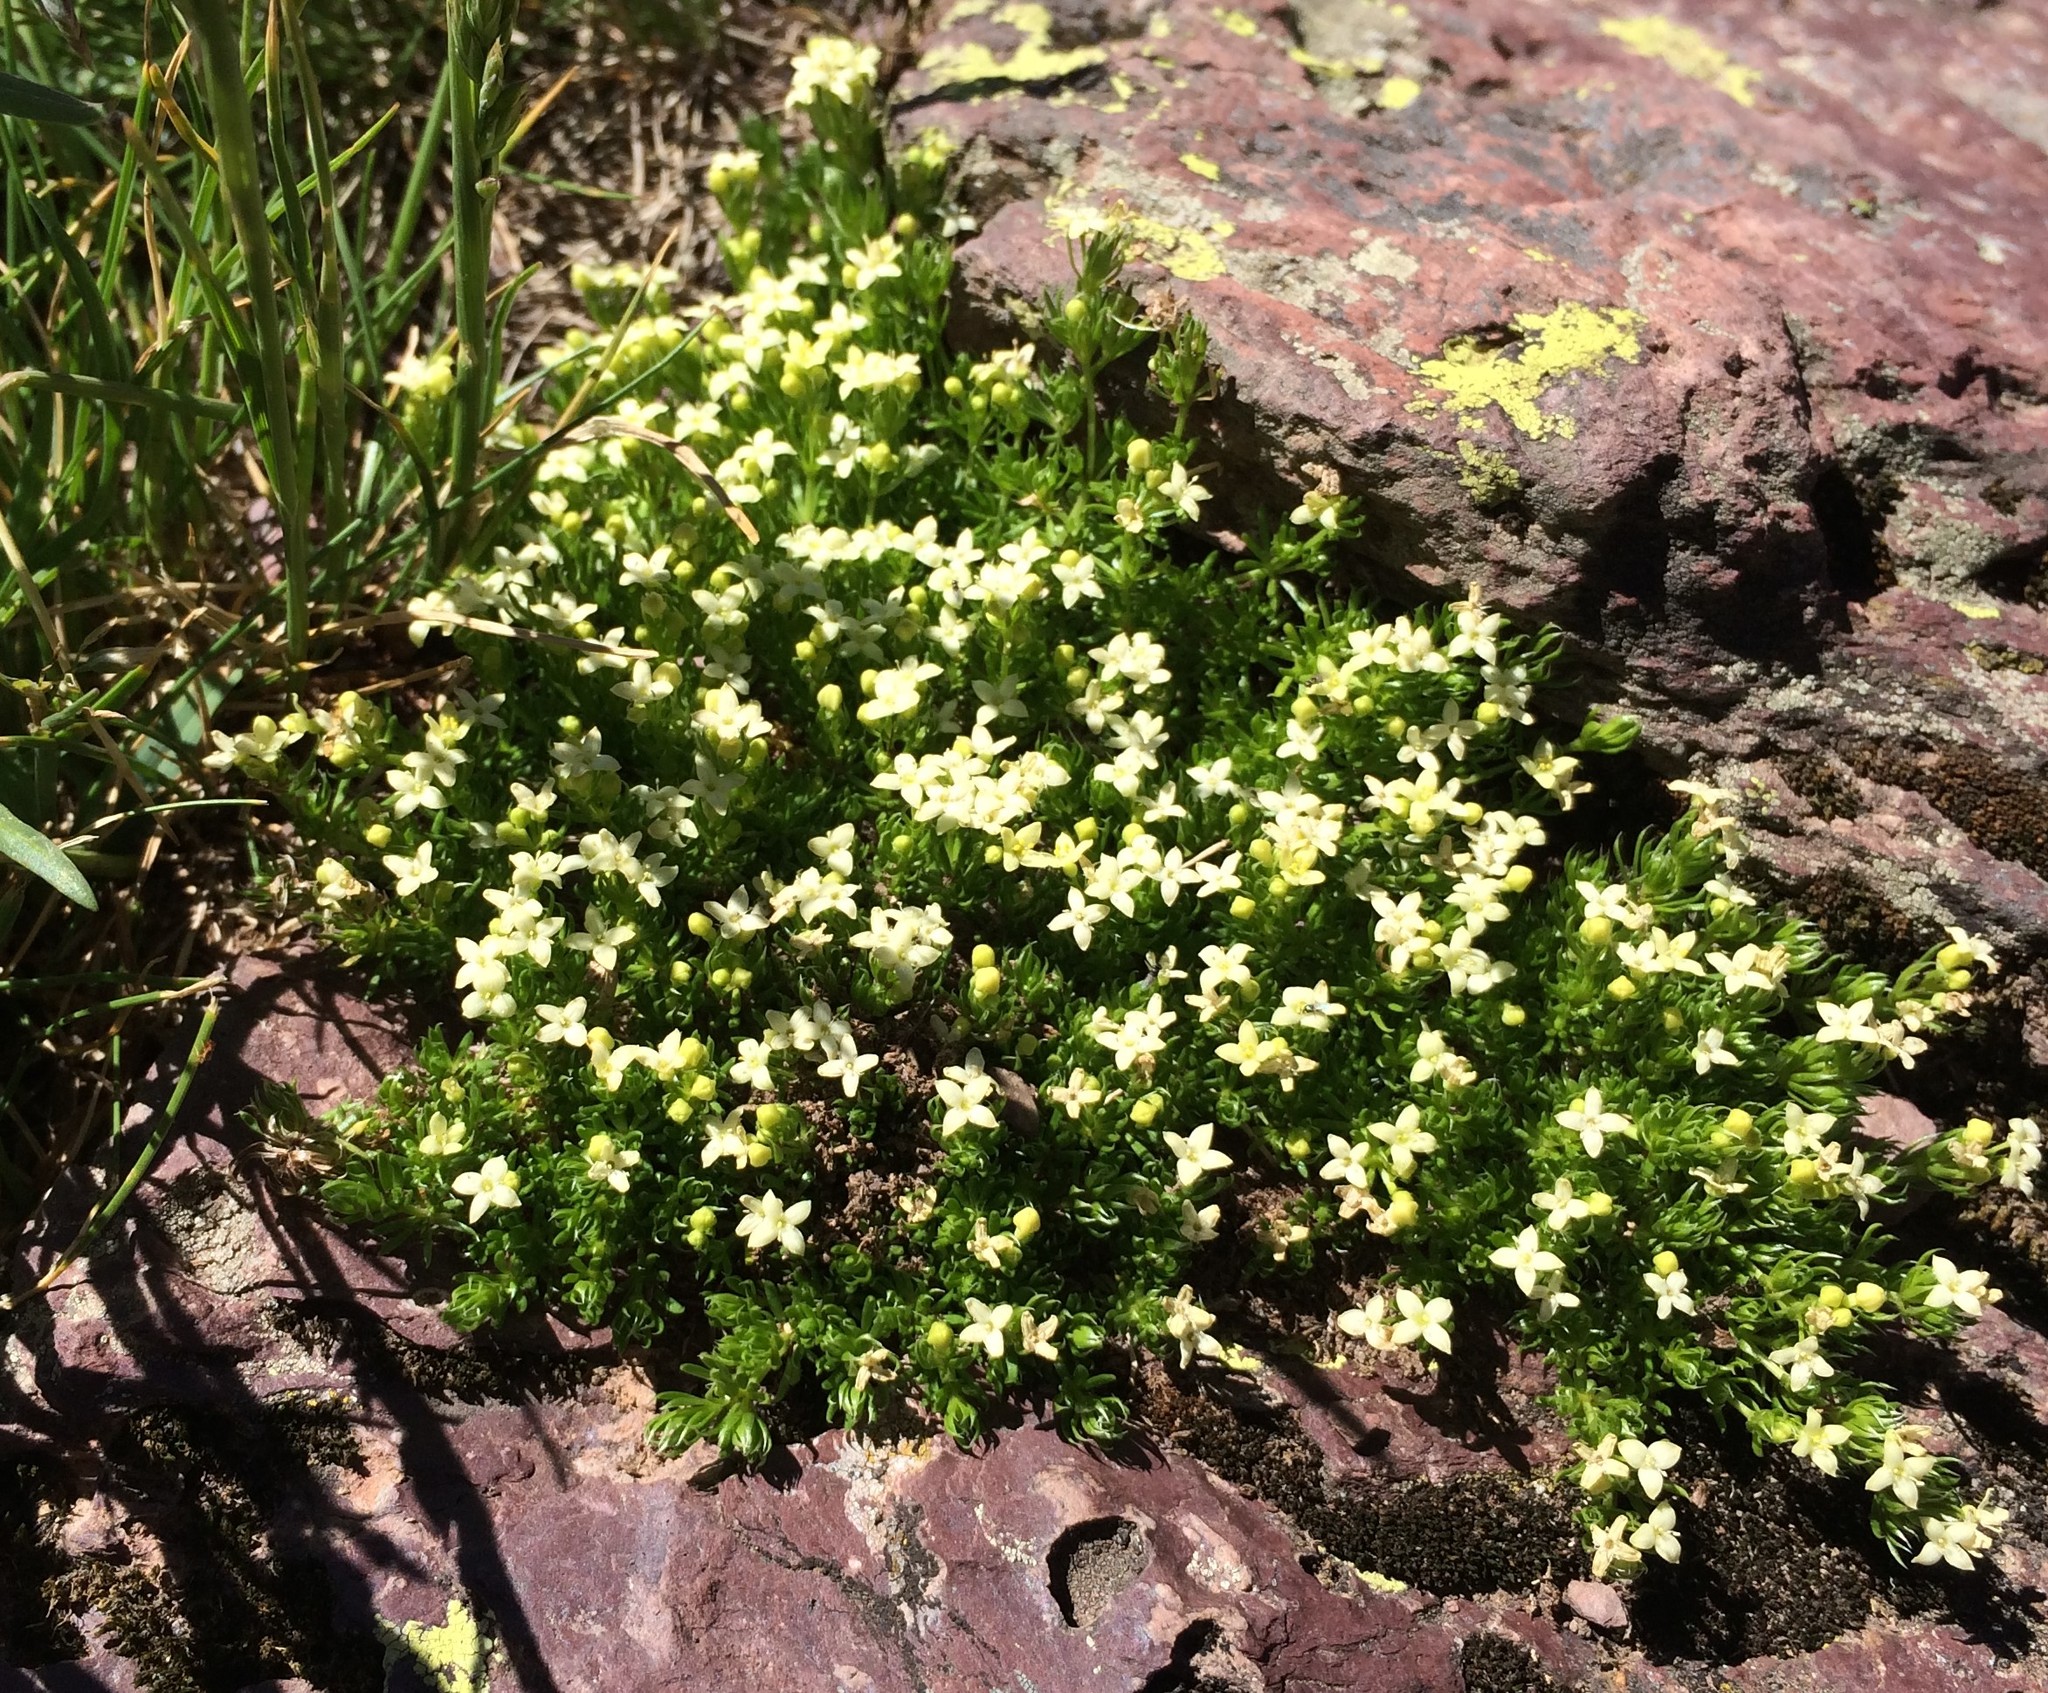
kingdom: Plantae
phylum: Tracheophyta
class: Magnoliopsida
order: Gentianales
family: Rubiaceae
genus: Galium
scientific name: Galium pyrenaicum
